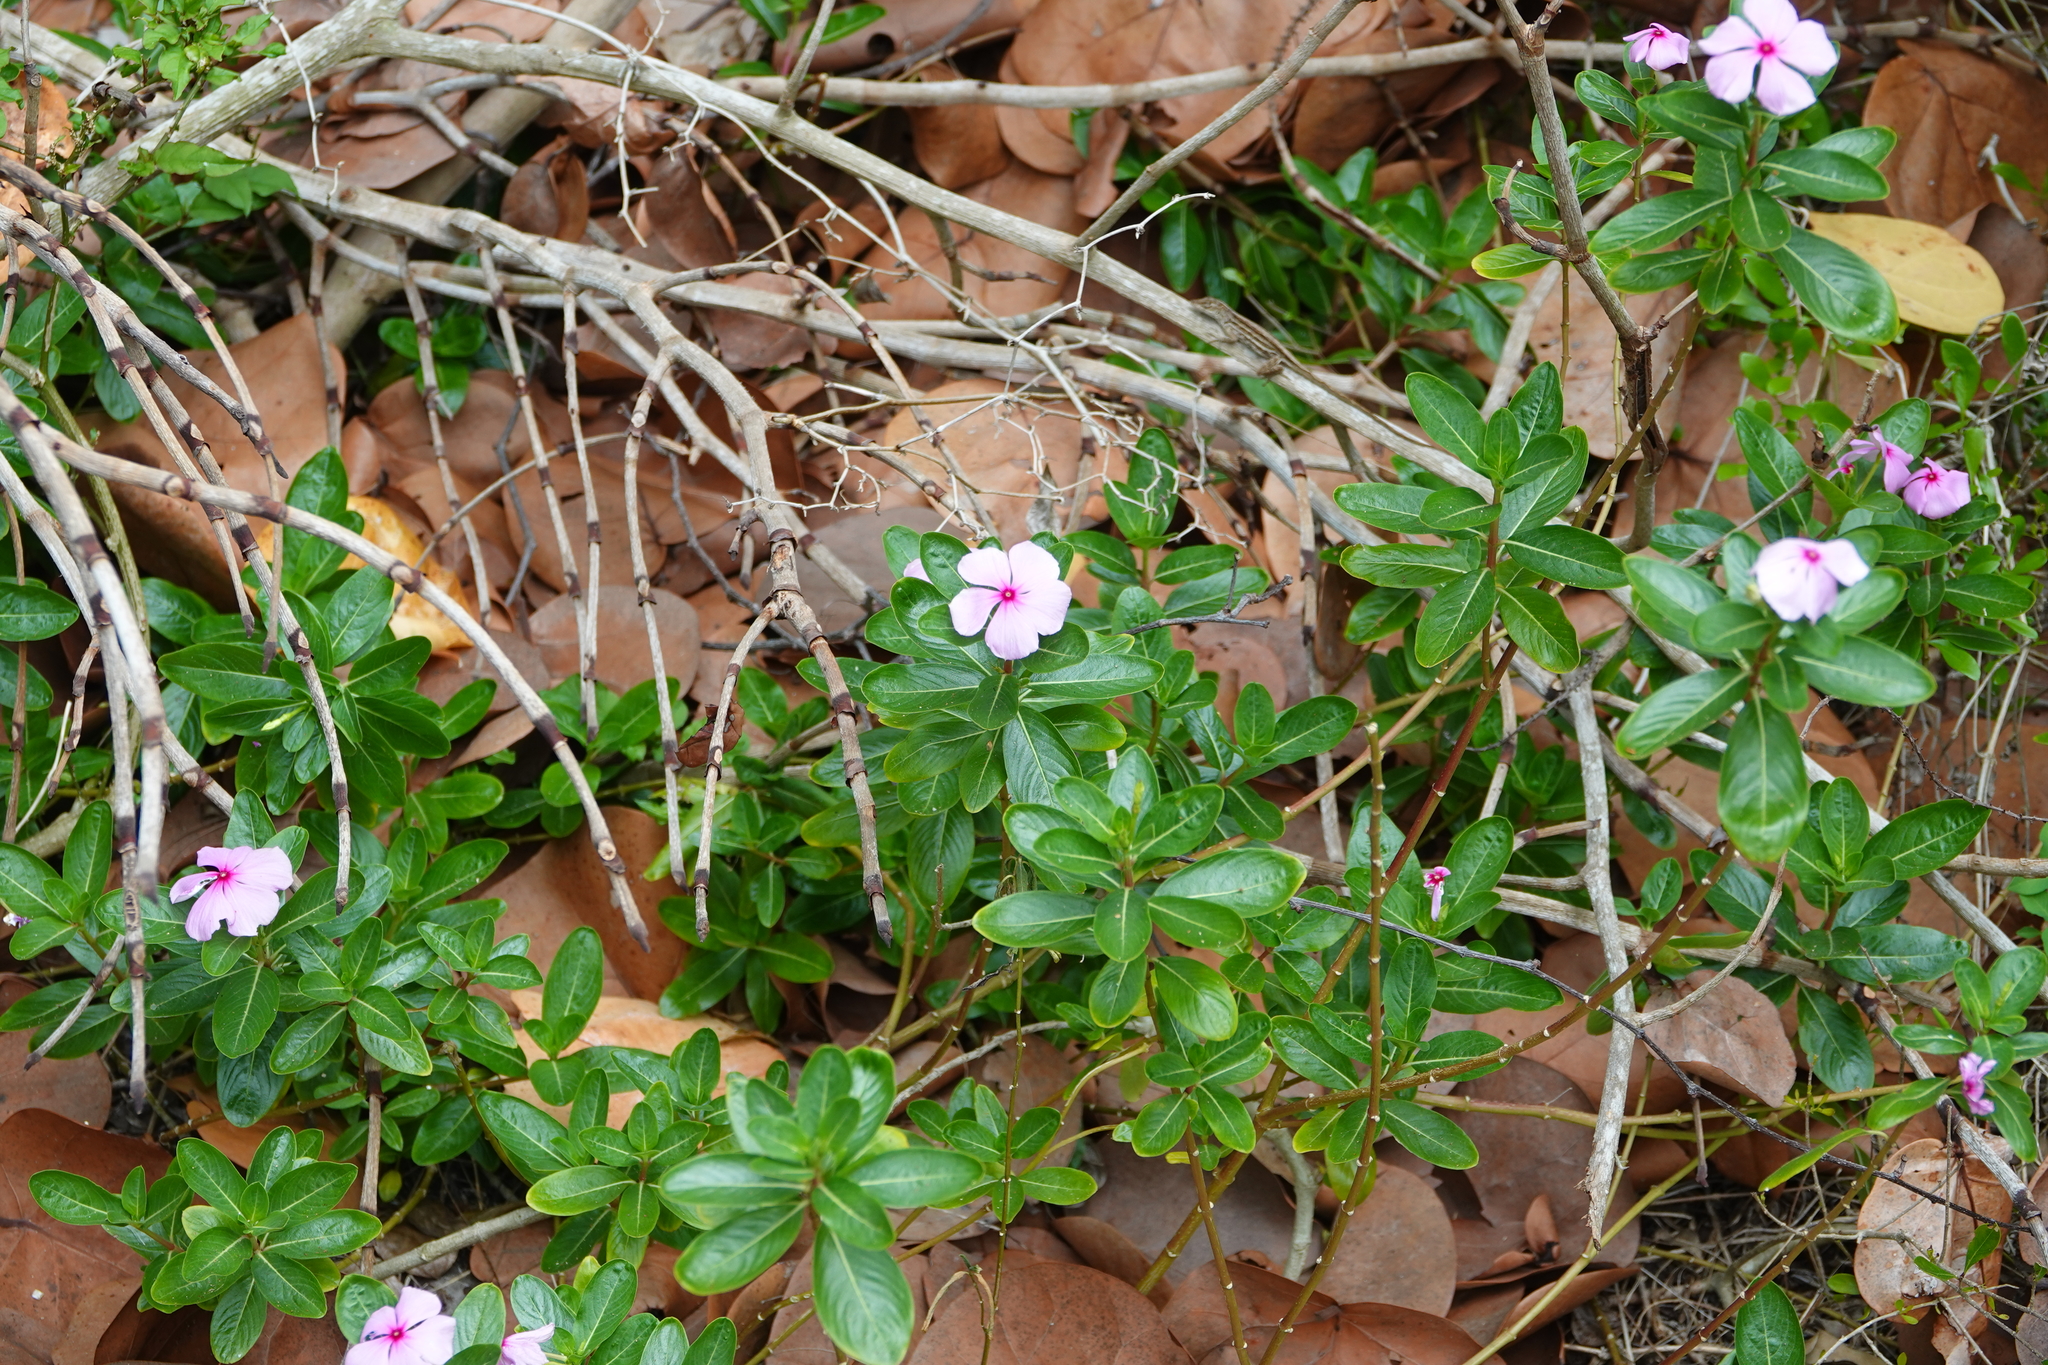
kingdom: Plantae
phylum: Tracheophyta
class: Magnoliopsida
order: Gentianales
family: Apocynaceae
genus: Catharanthus
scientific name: Catharanthus roseus
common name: Madagascar periwinkle
